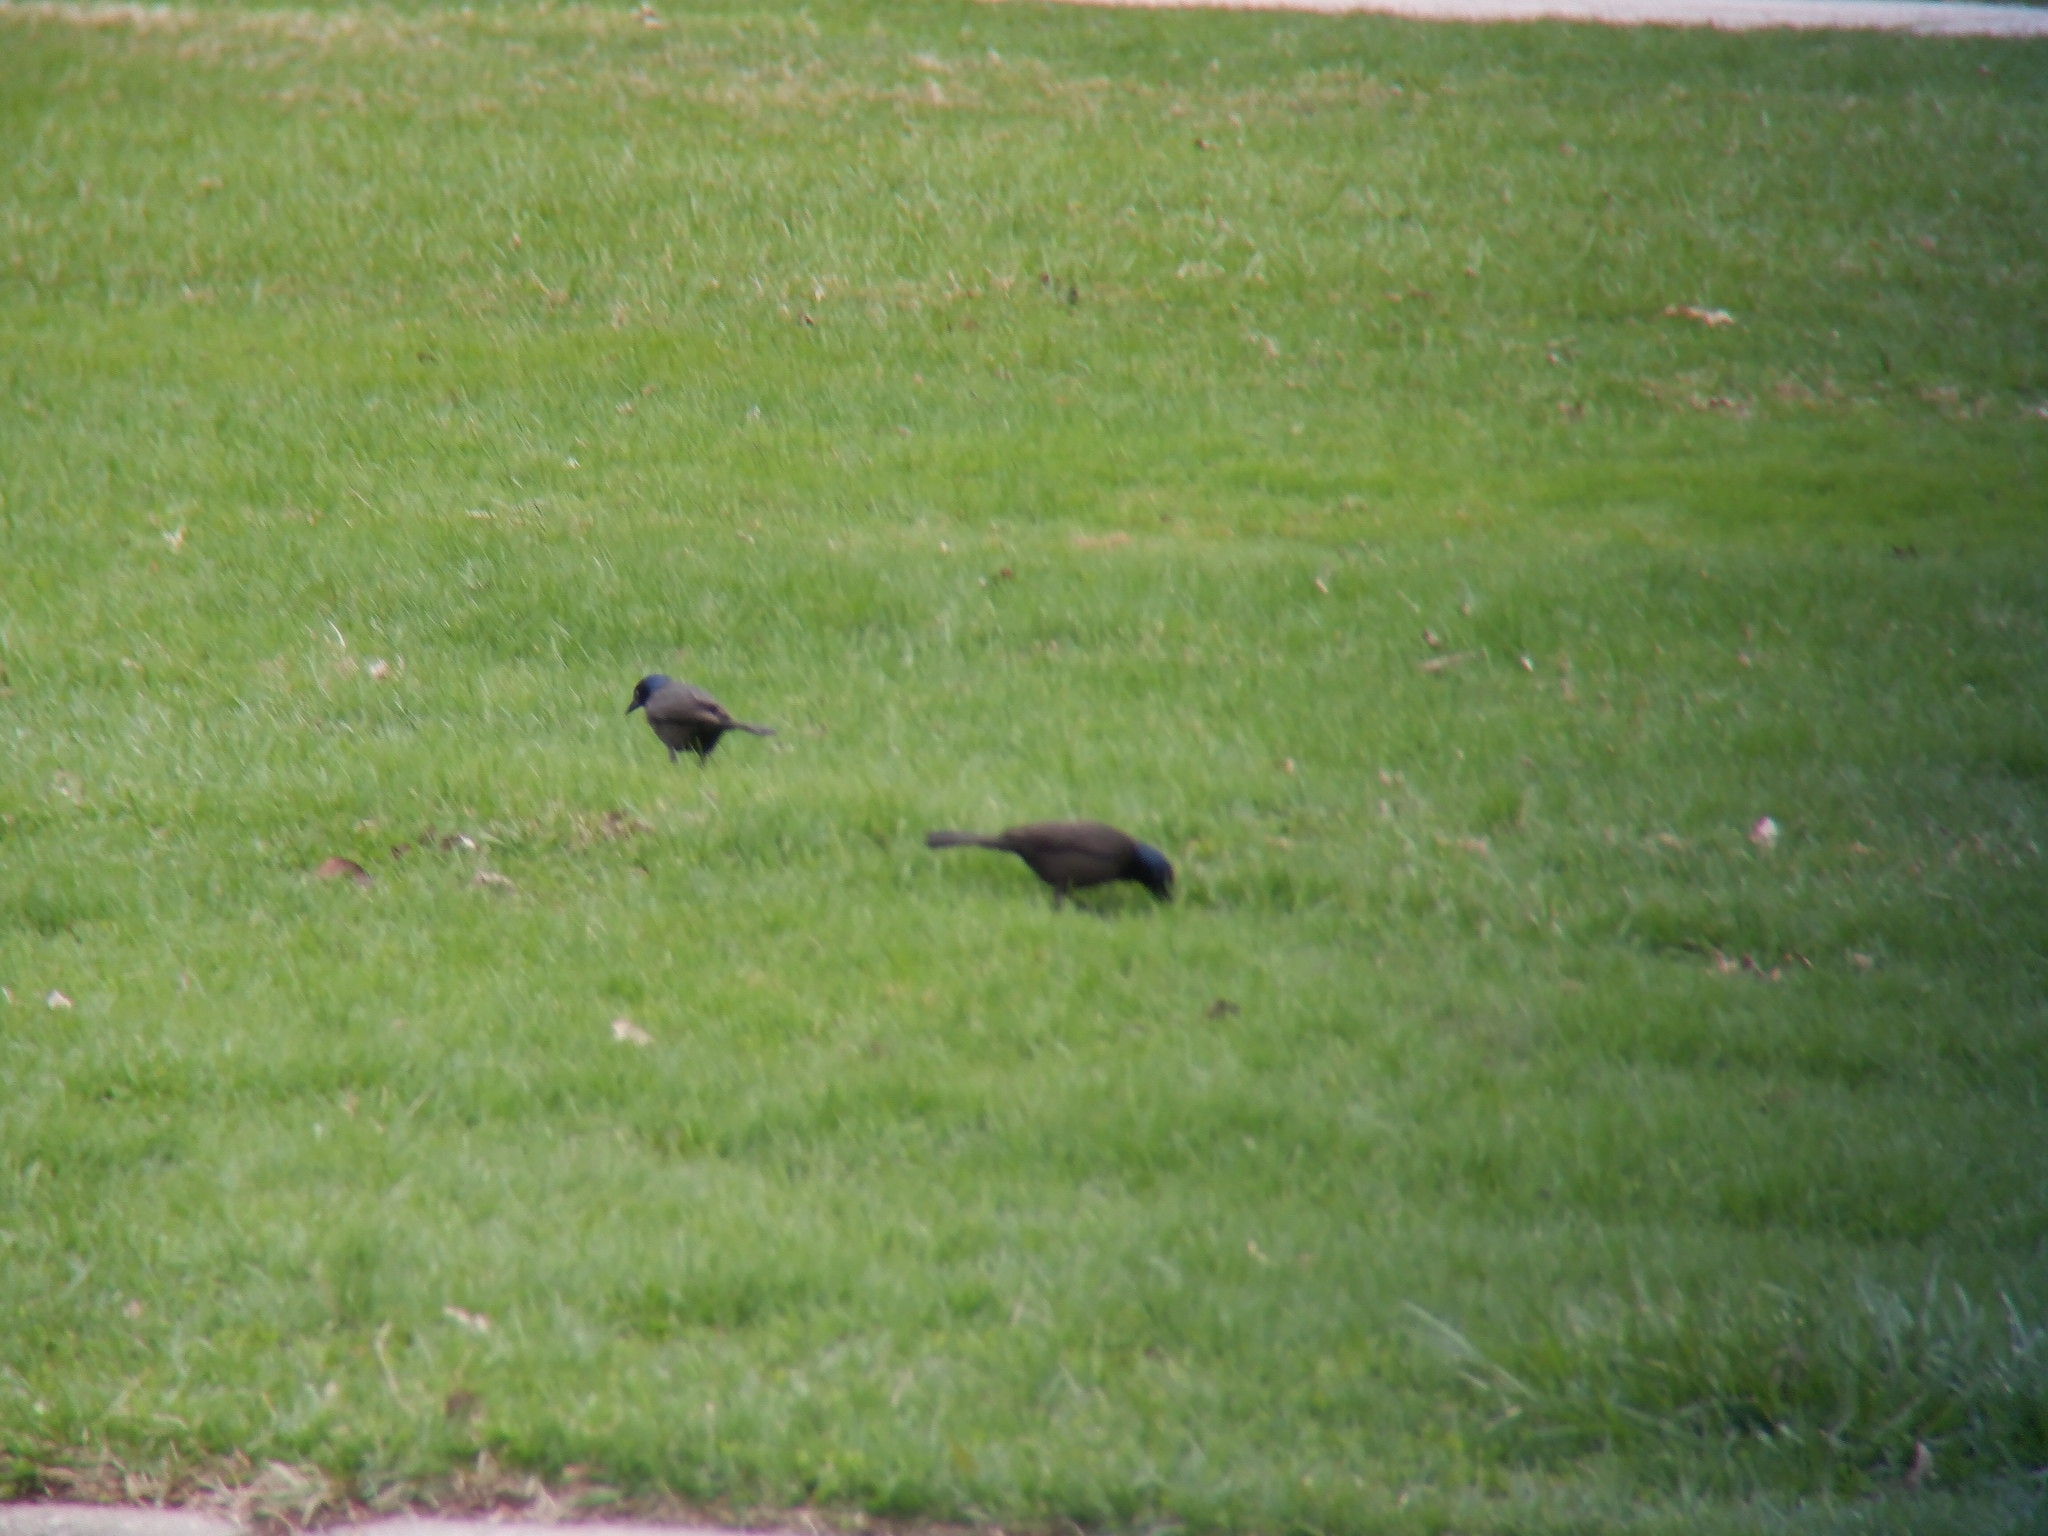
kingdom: Animalia
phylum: Chordata
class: Aves
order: Passeriformes
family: Icteridae
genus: Quiscalus
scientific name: Quiscalus quiscula
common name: Common grackle
